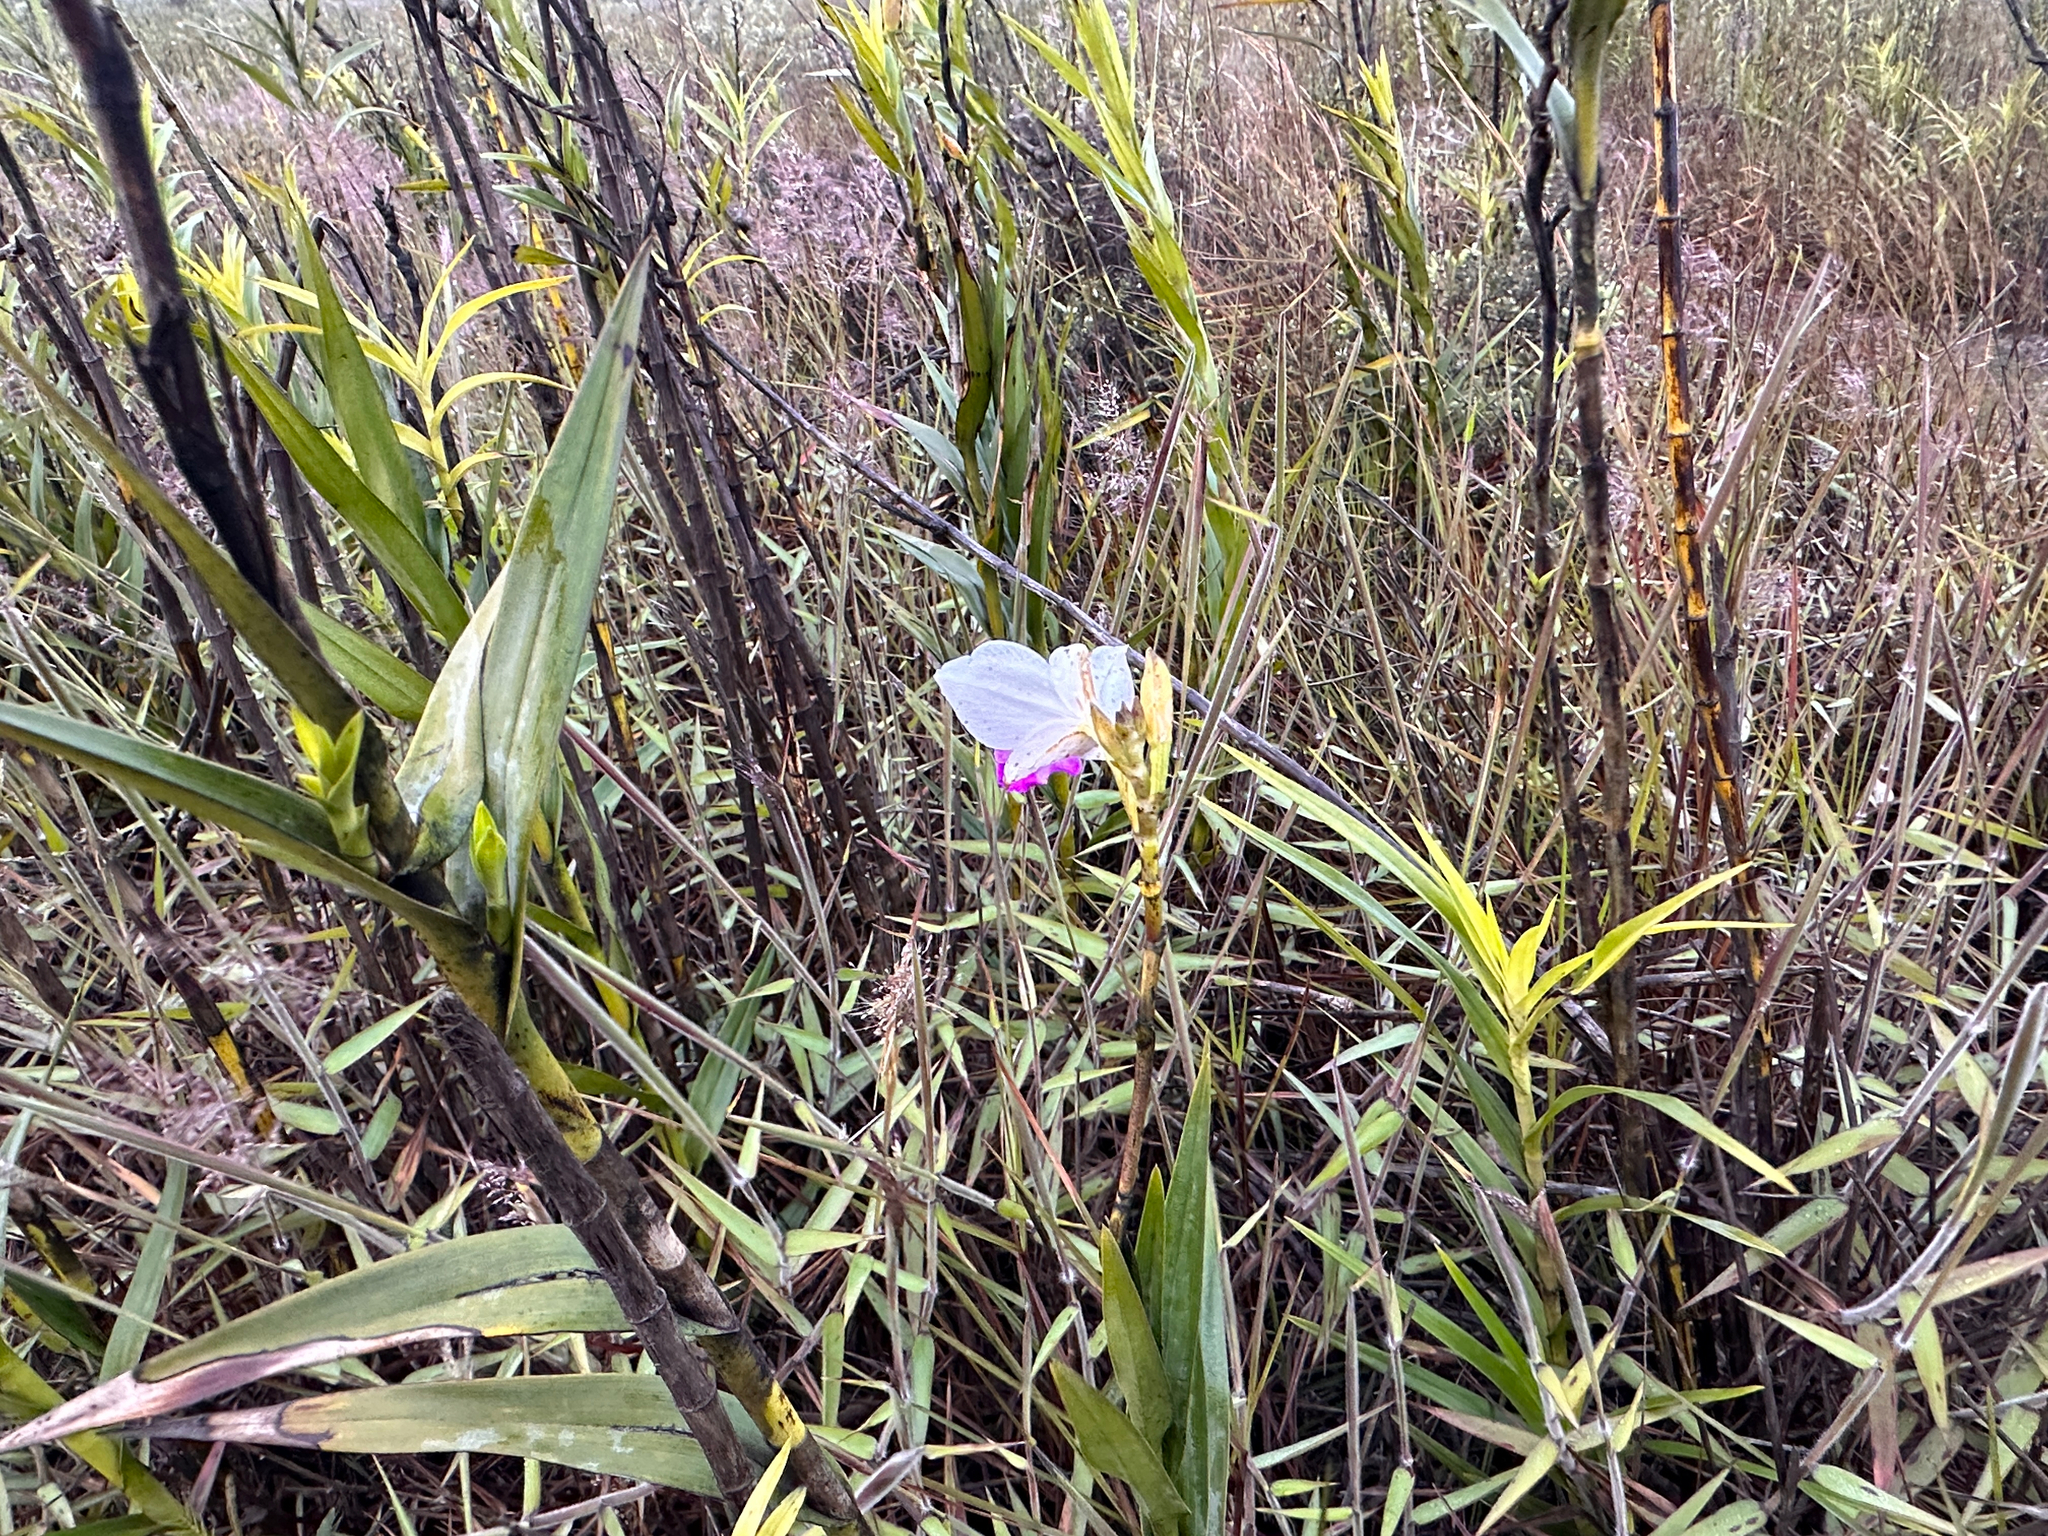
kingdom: Plantae
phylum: Tracheophyta
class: Liliopsida
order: Asparagales
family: Orchidaceae
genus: Arundina
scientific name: Arundina graminifolia
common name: Bamboo orchid
